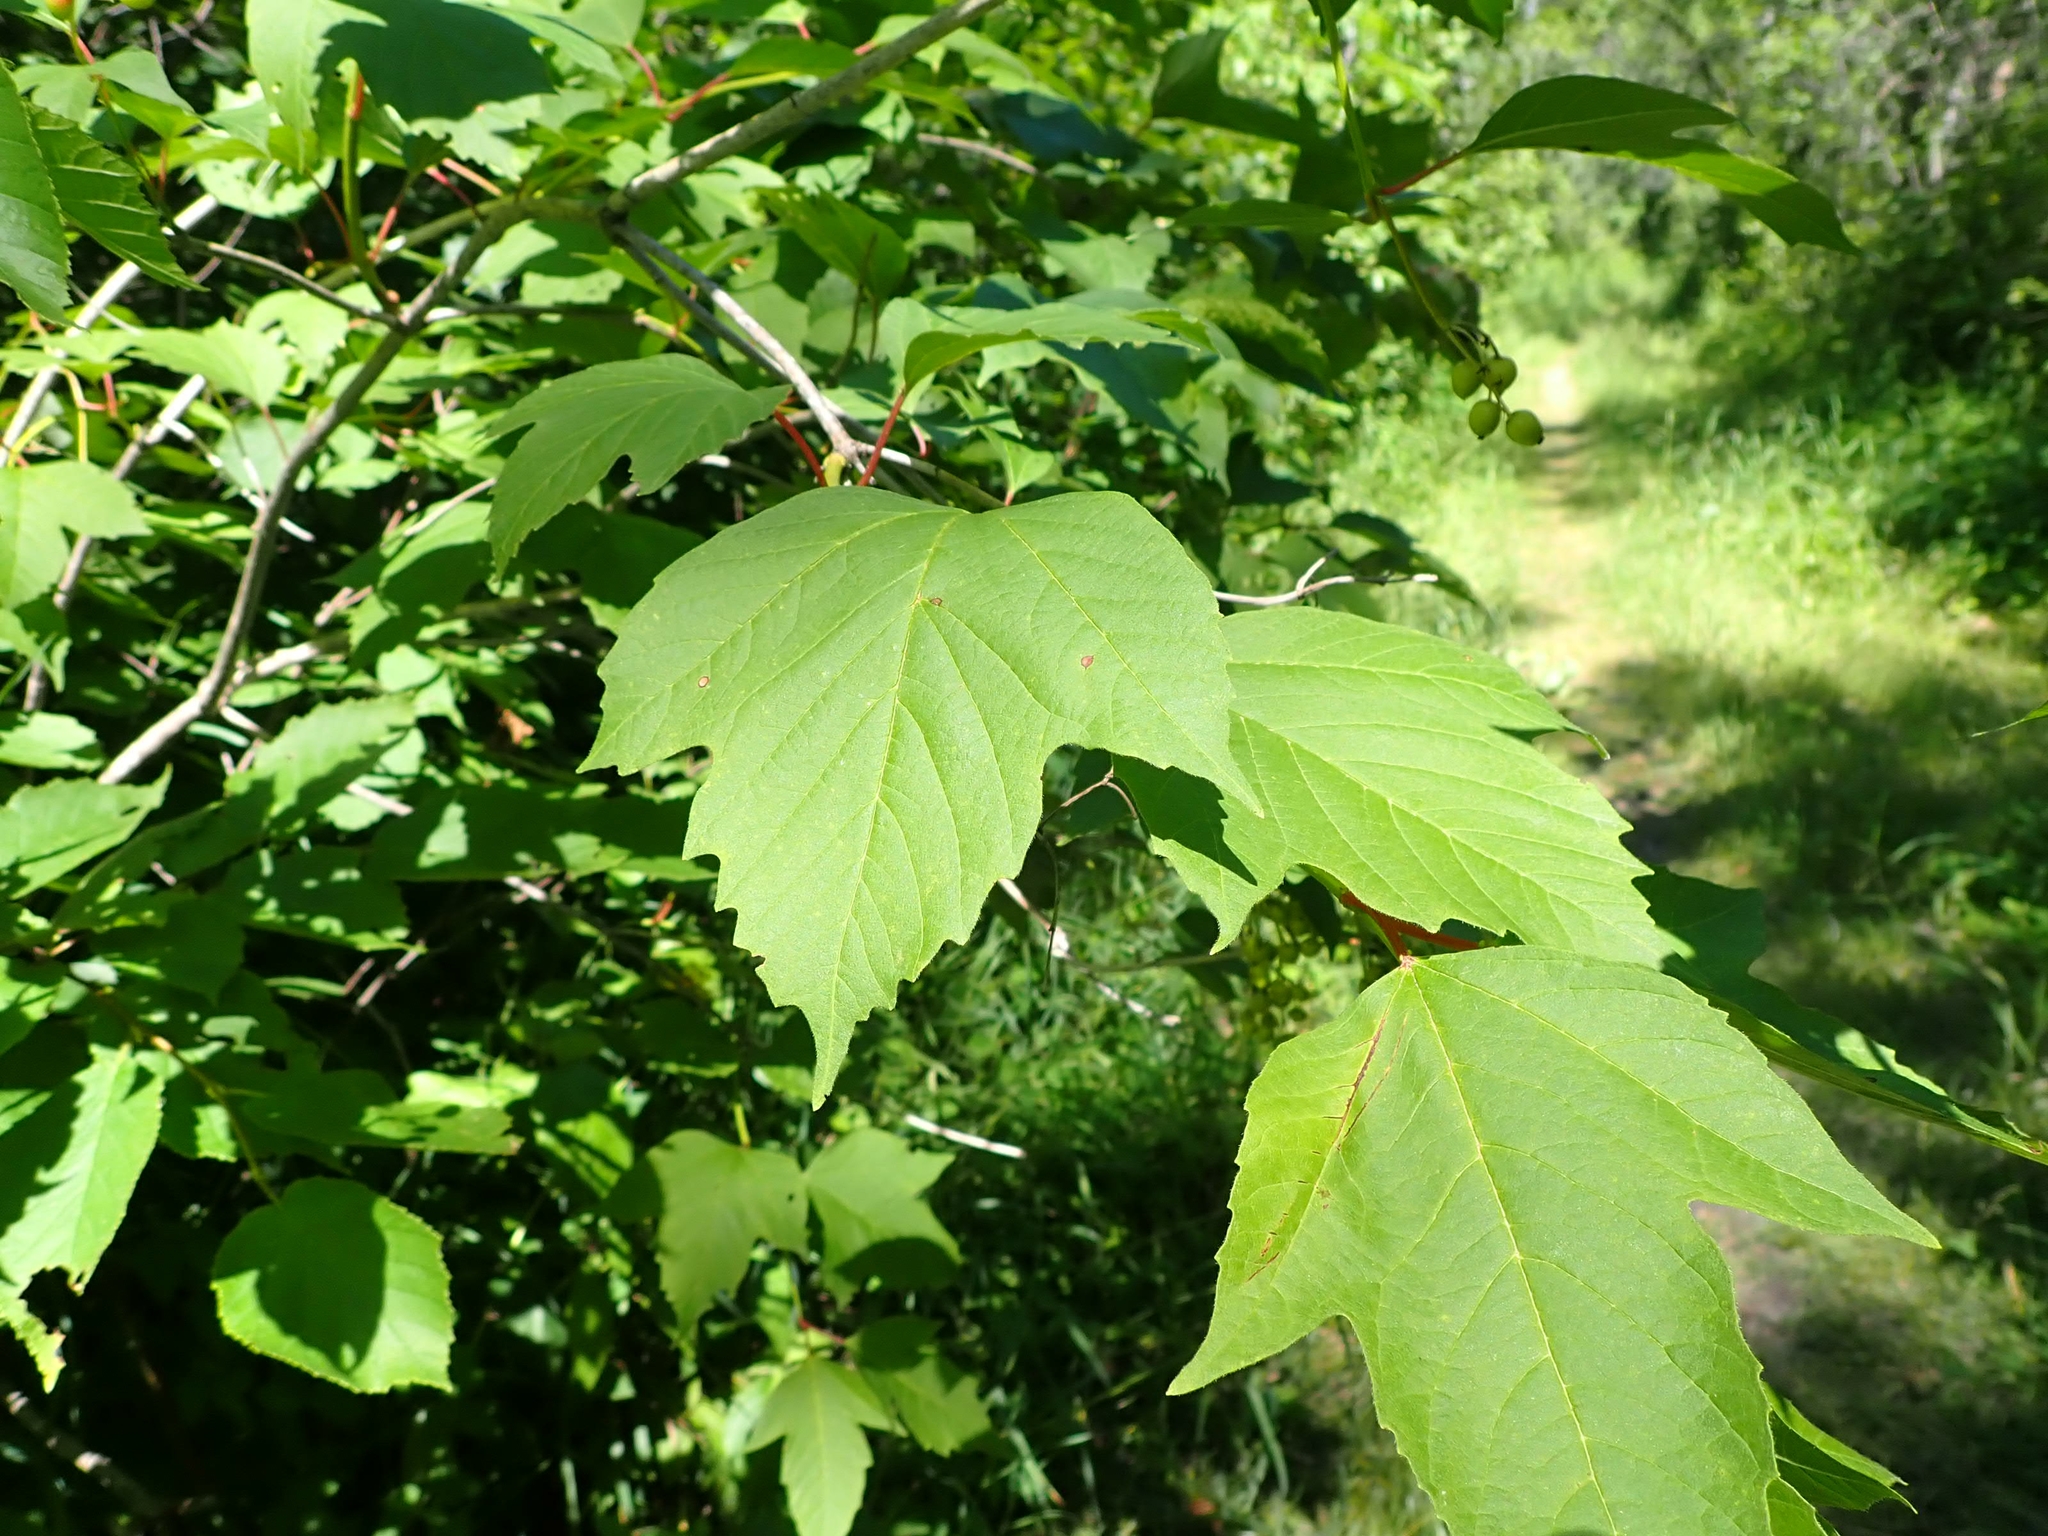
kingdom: Plantae
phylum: Tracheophyta
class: Magnoliopsida
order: Dipsacales
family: Viburnaceae
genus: Viburnum
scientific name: Viburnum trilobum
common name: American cranberrybush
